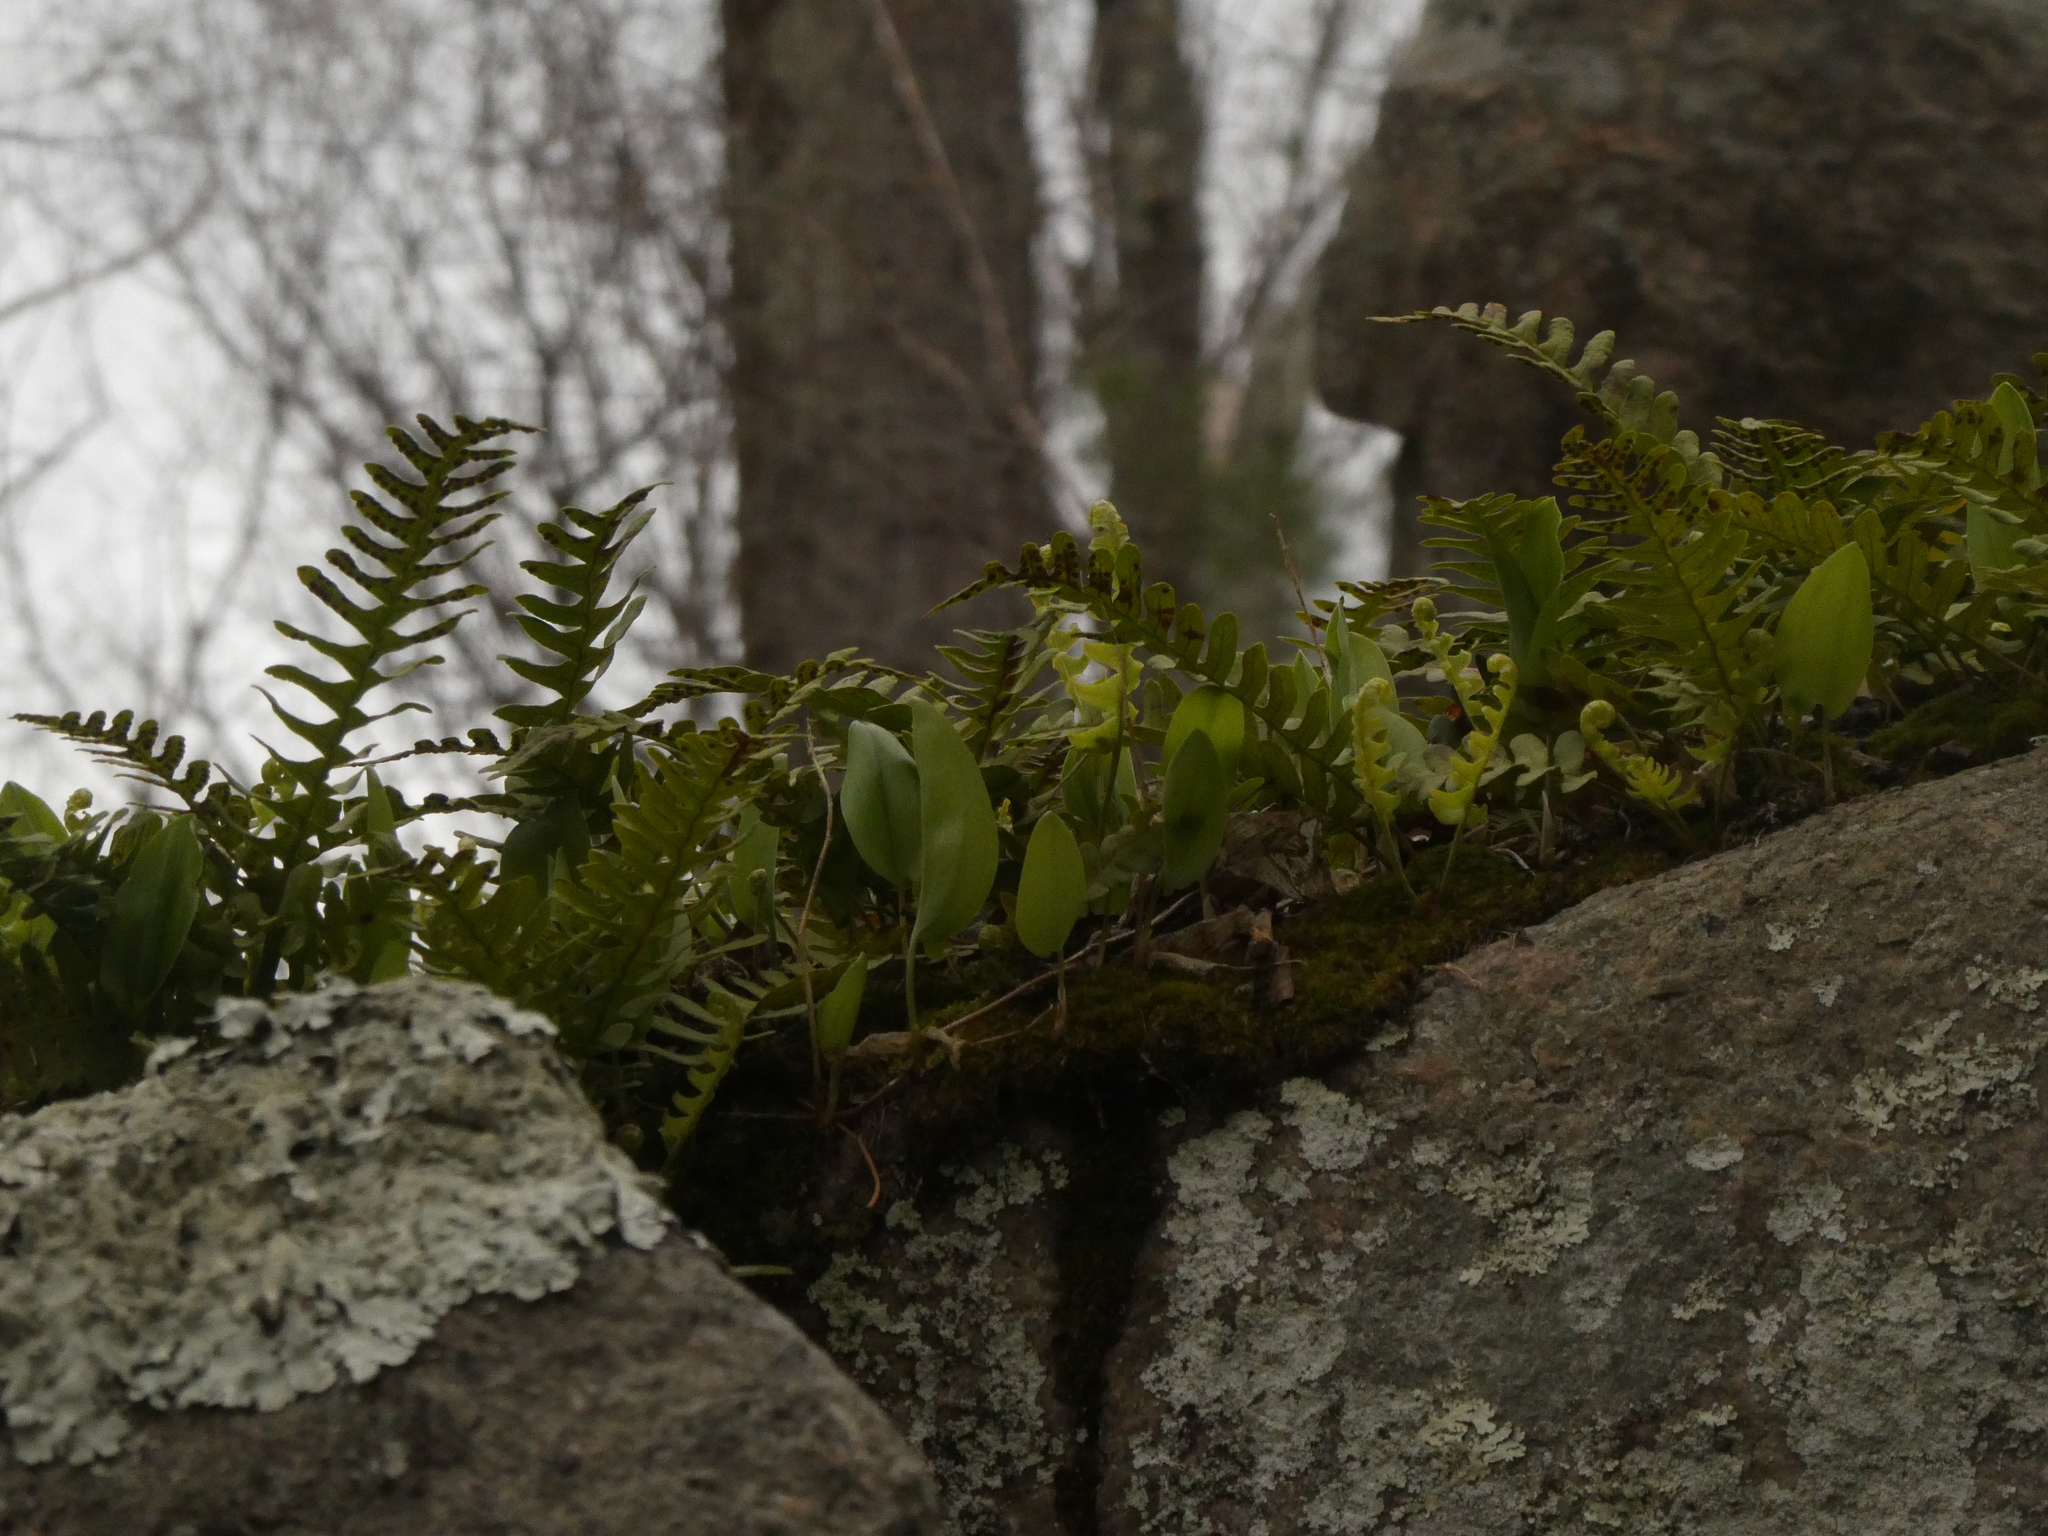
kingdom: Plantae
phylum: Tracheophyta
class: Polypodiopsida
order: Polypodiales
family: Polypodiaceae
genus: Polypodium
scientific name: Polypodium virginianum
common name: American wall fern
